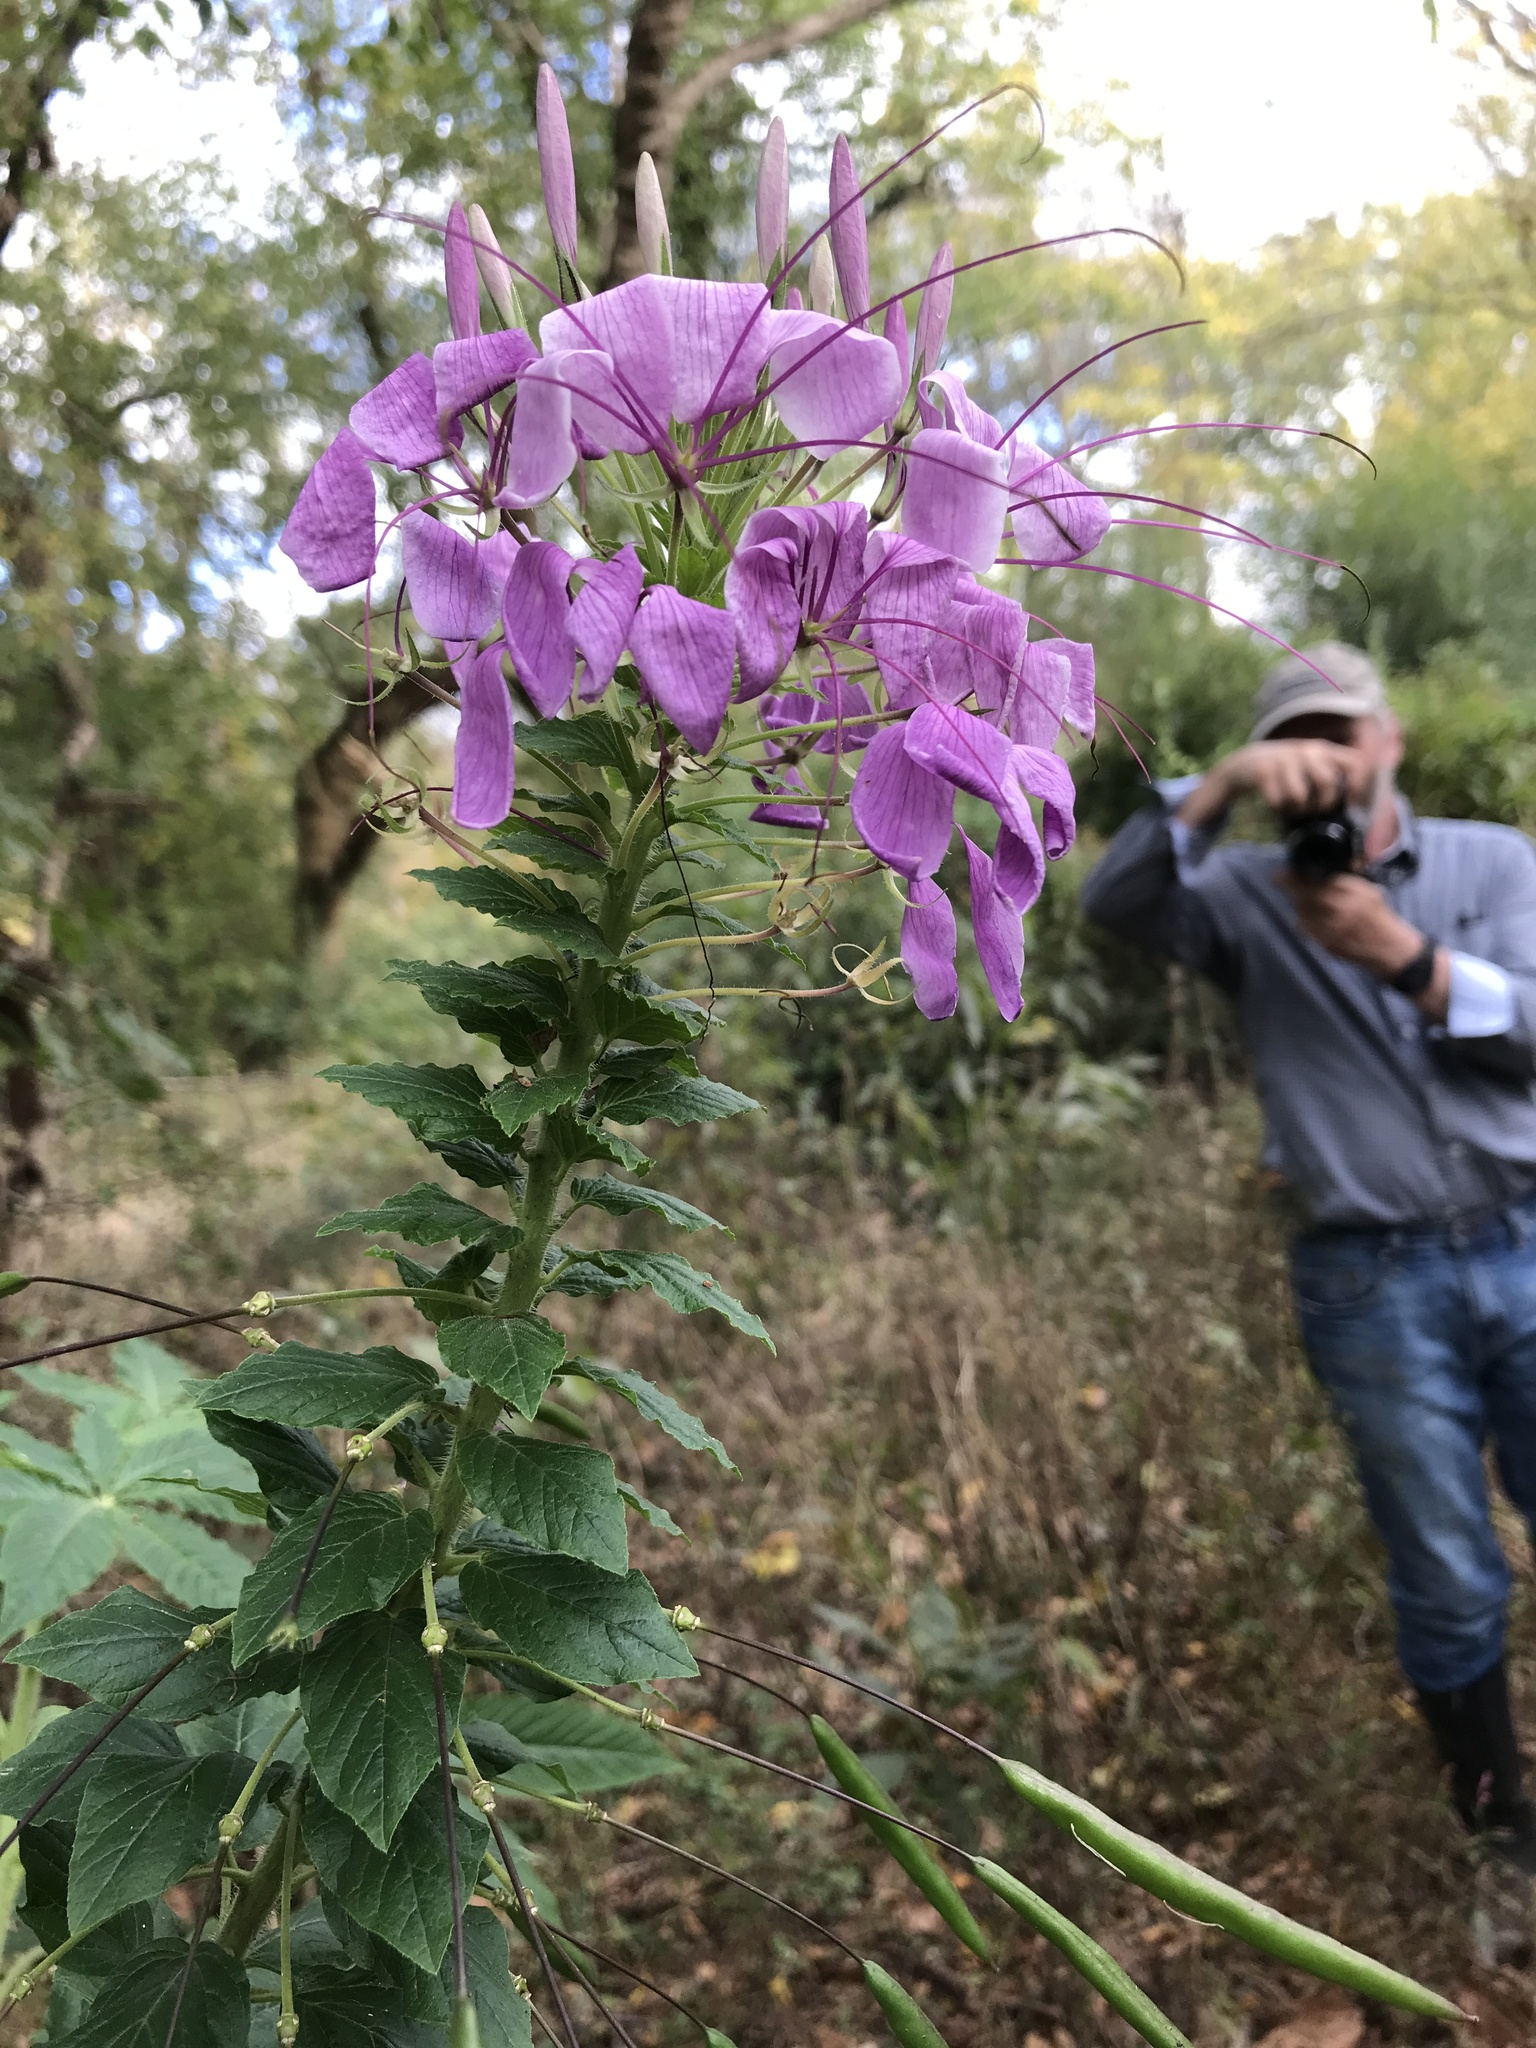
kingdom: Plantae
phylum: Tracheophyta
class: Magnoliopsida
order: Brassicales
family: Cleomaceae
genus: Tarenaya
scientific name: Tarenaya houtteana
